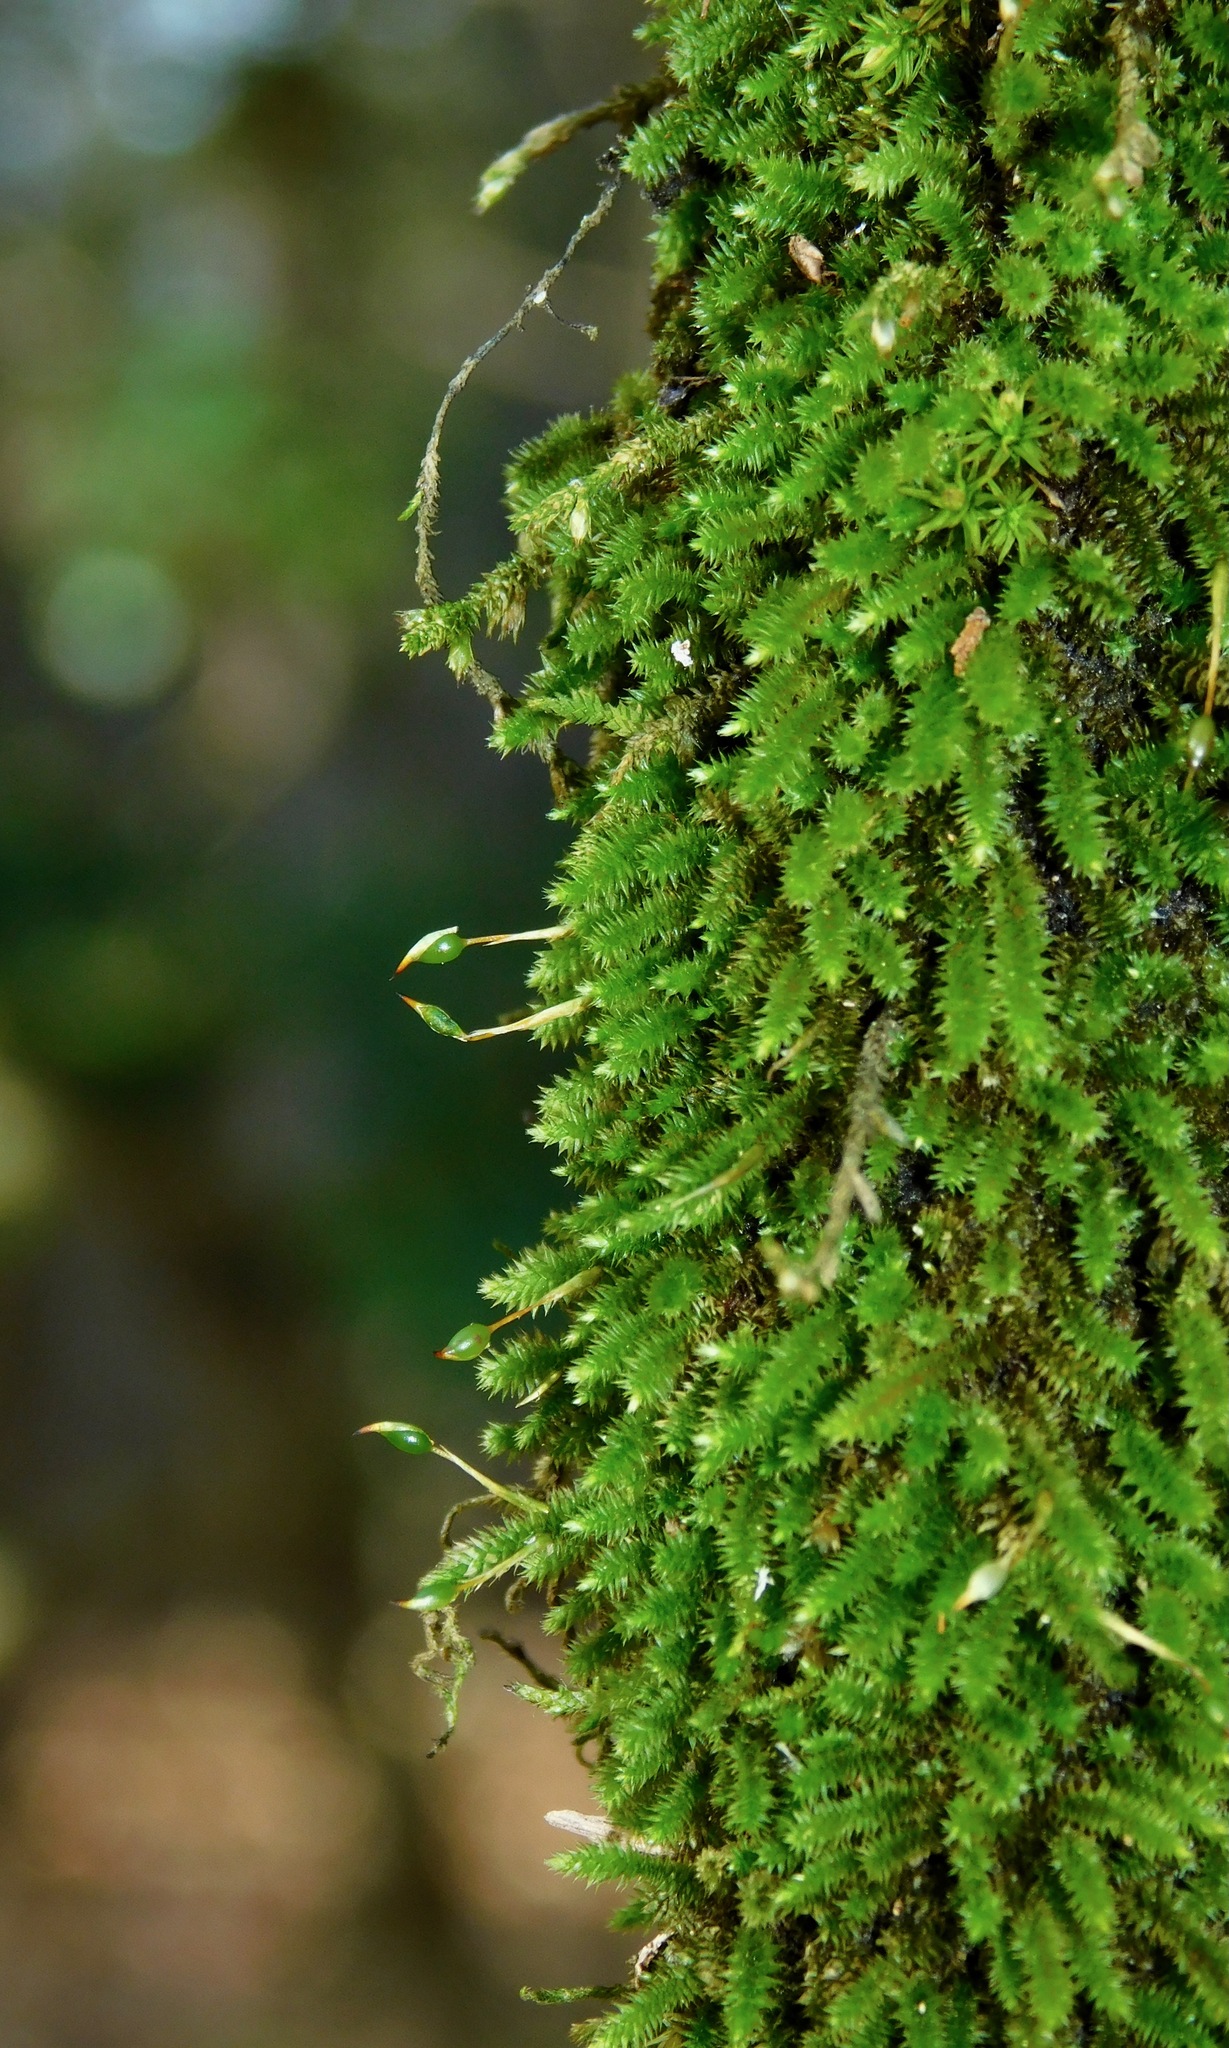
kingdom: Plantae
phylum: Bryophyta
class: Bryopsida
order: Hypnales
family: Leucodontaceae
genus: Leucodon
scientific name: Leucodon julaceus
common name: Smooth hook moss
